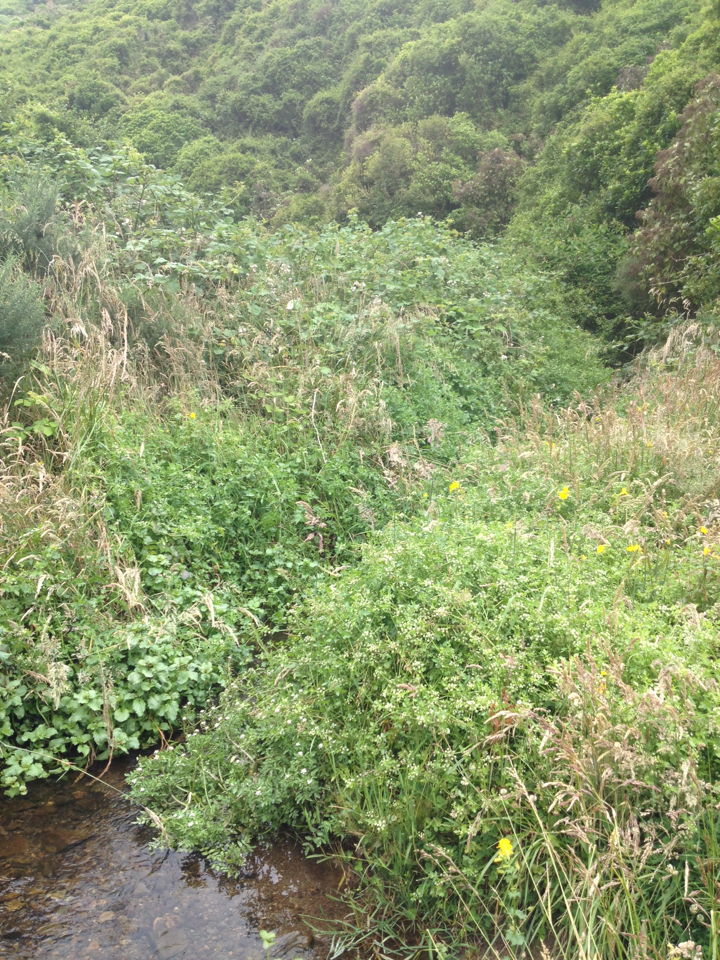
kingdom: Plantae
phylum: Tracheophyta
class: Magnoliopsida
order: Brassicales
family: Brassicaceae
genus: Nasturtium
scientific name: Nasturtium officinale
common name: Watercress
